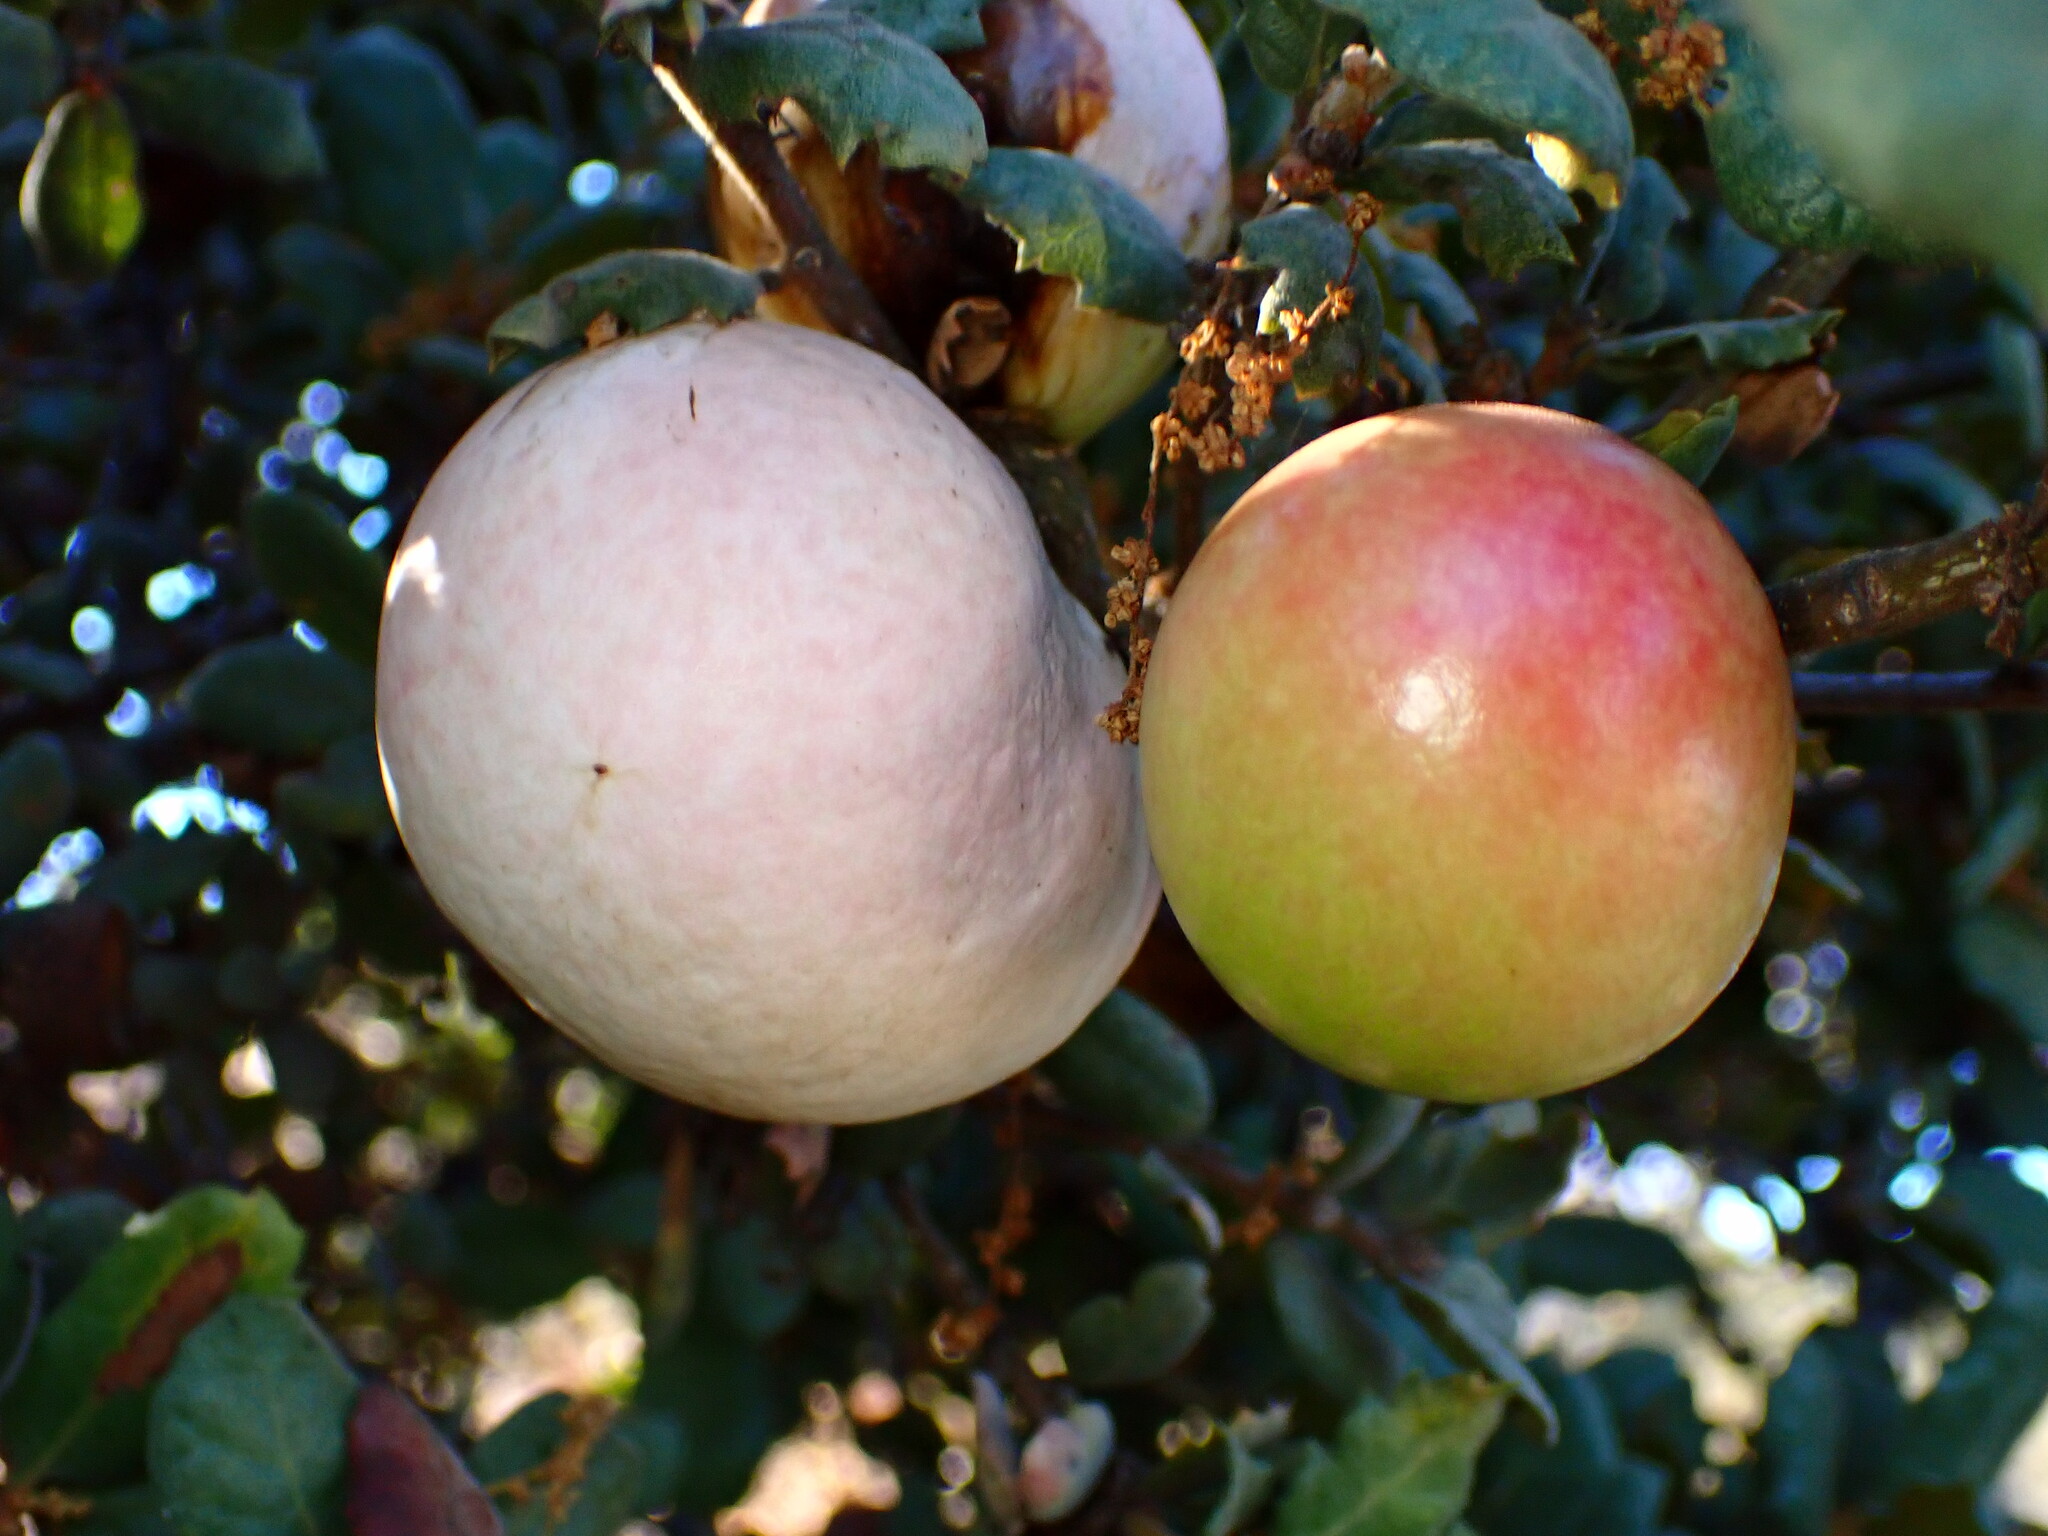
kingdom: Animalia
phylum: Arthropoda
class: Insecta
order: Hymenoptera
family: Cynipidae
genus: Andricus
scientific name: Andricus quercuscalifornicus
